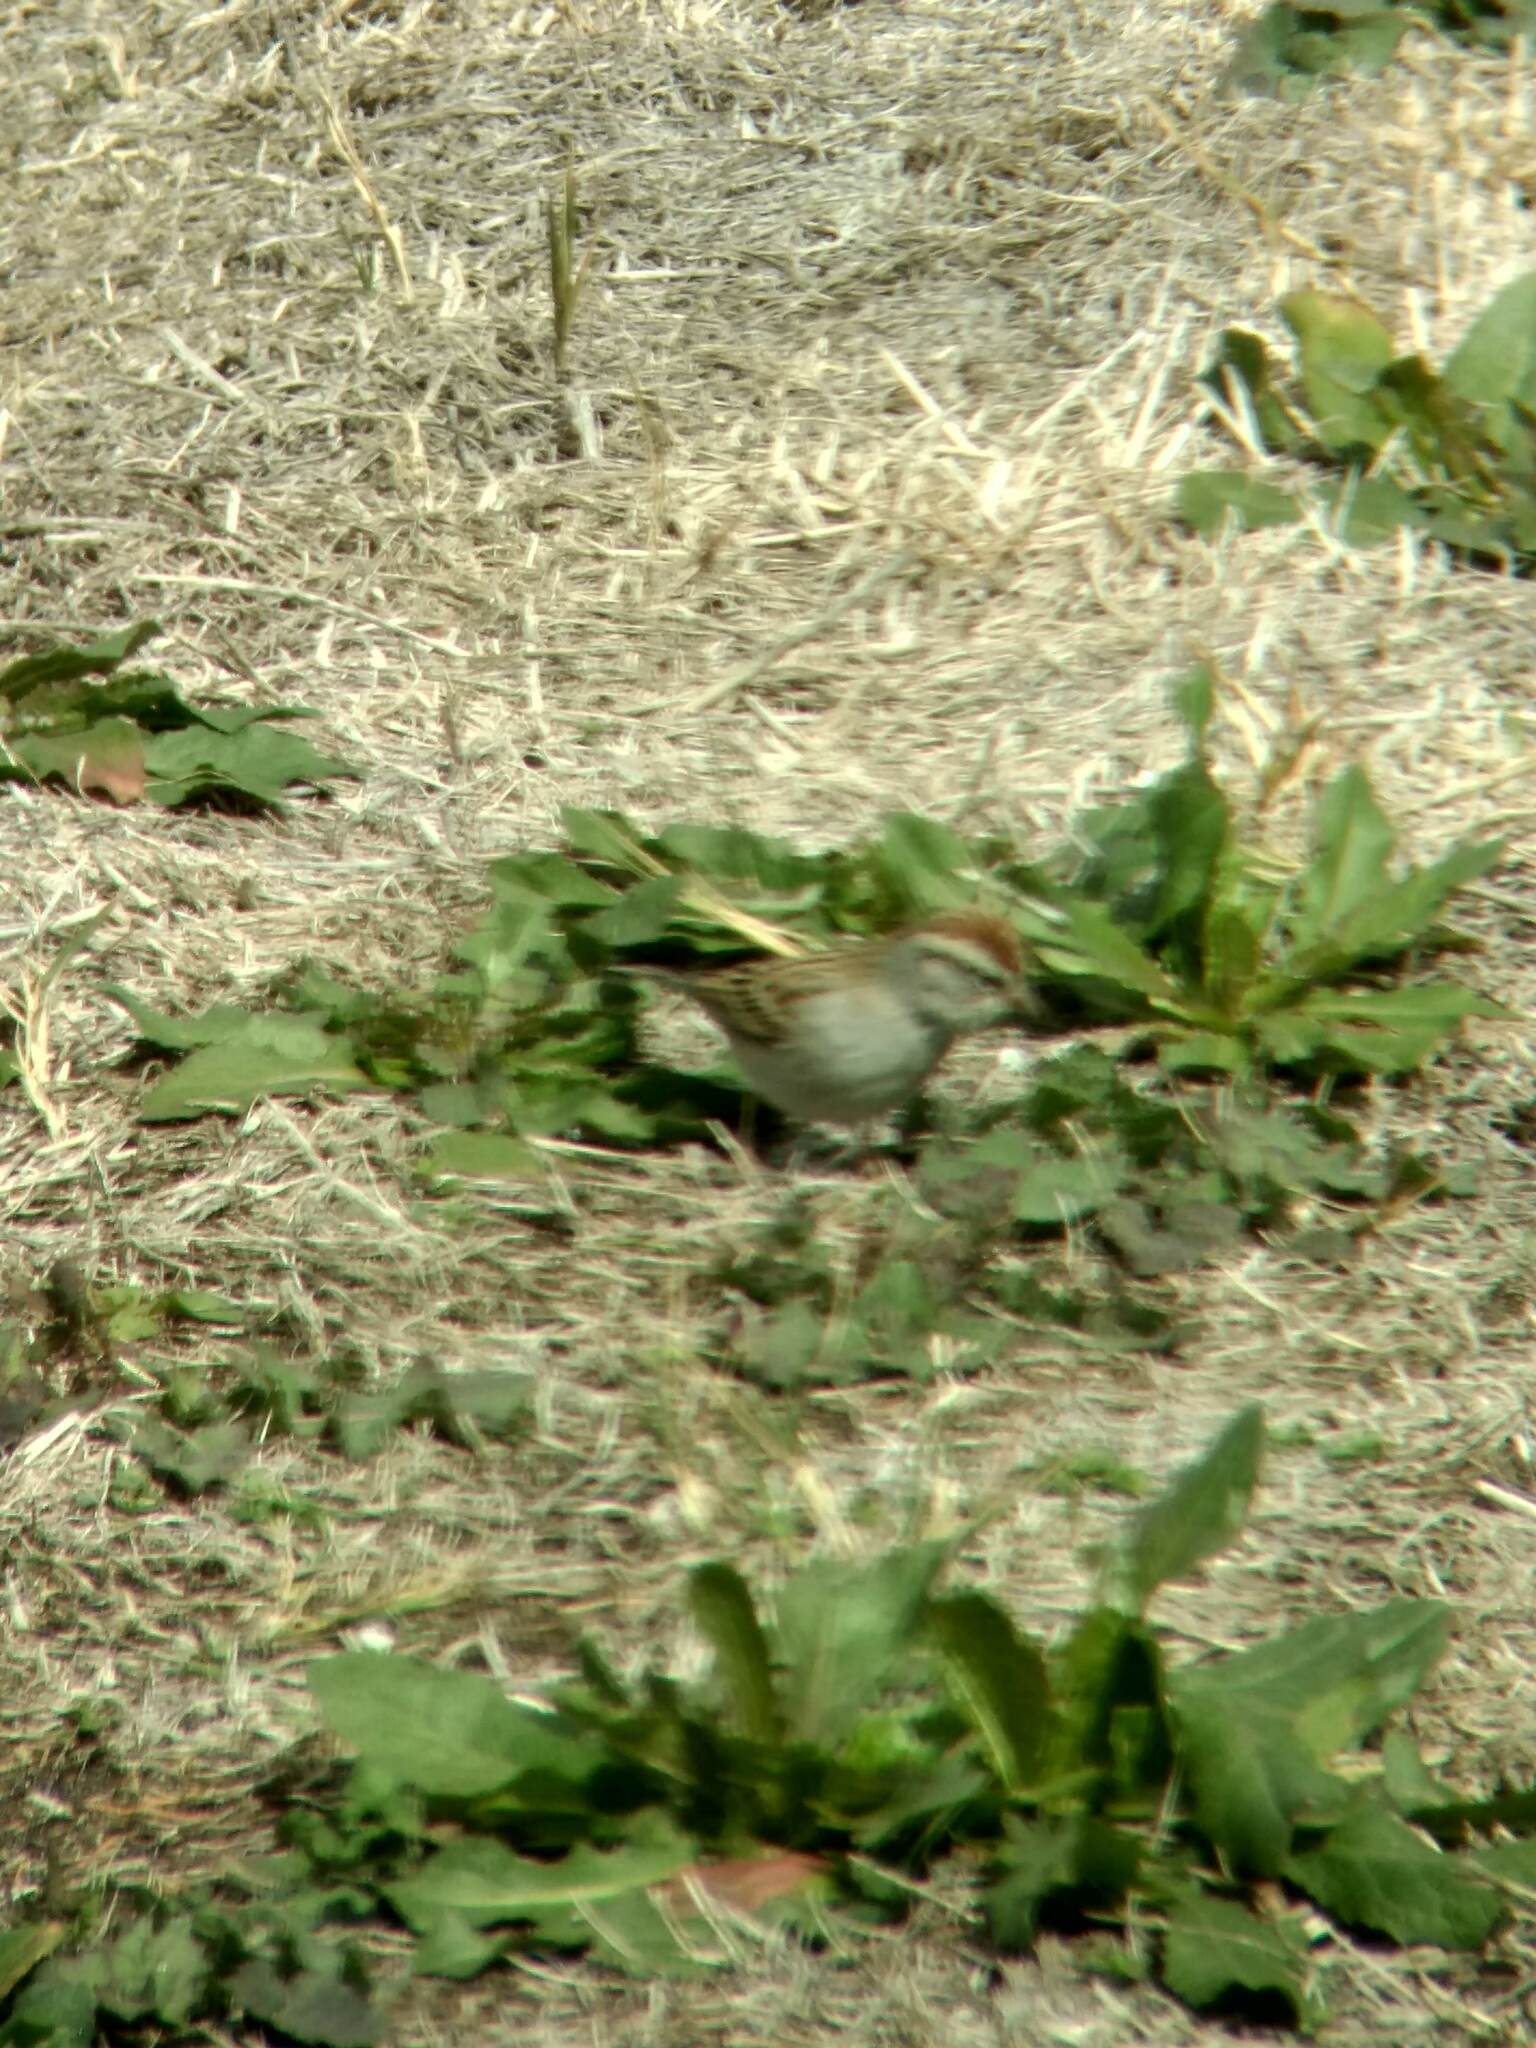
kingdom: Animalia
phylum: Chordata
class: Aves
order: Passeriformes
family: Passerellidae
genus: Spizella
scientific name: Spizella passerina
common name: Chipping sparrow
